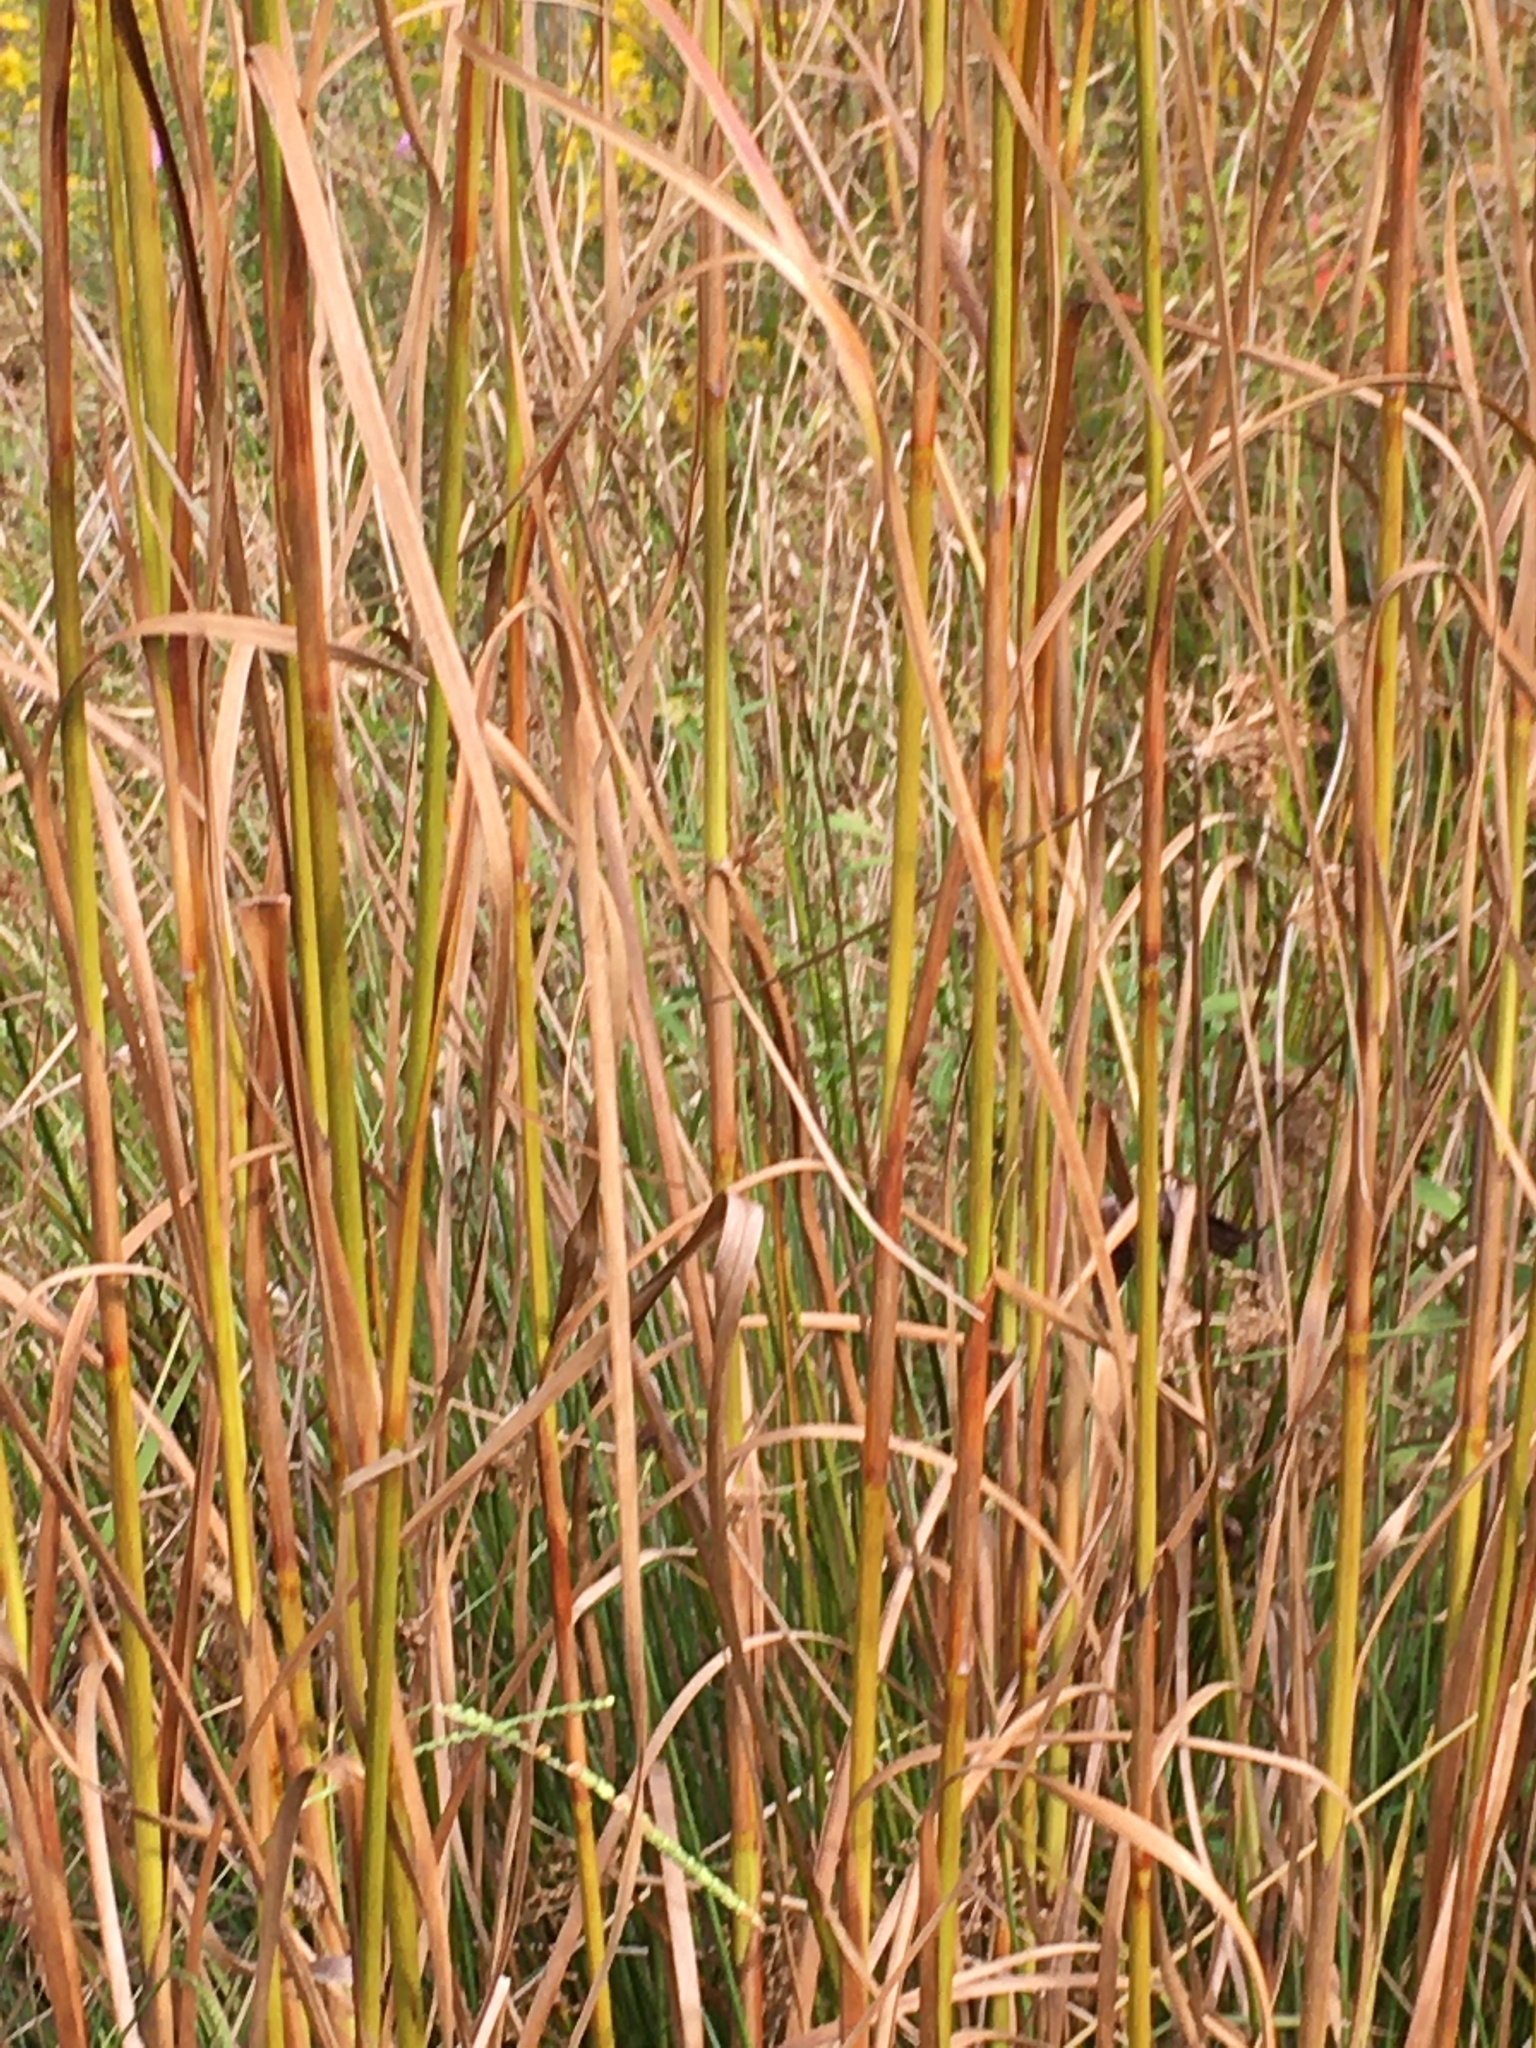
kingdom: Plantae
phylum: Tracheophyta
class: Liliopsida
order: Poales
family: Cyperaceae
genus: Scirpus
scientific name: Scirpus cyperinus
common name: Black-sheathed bulrush
